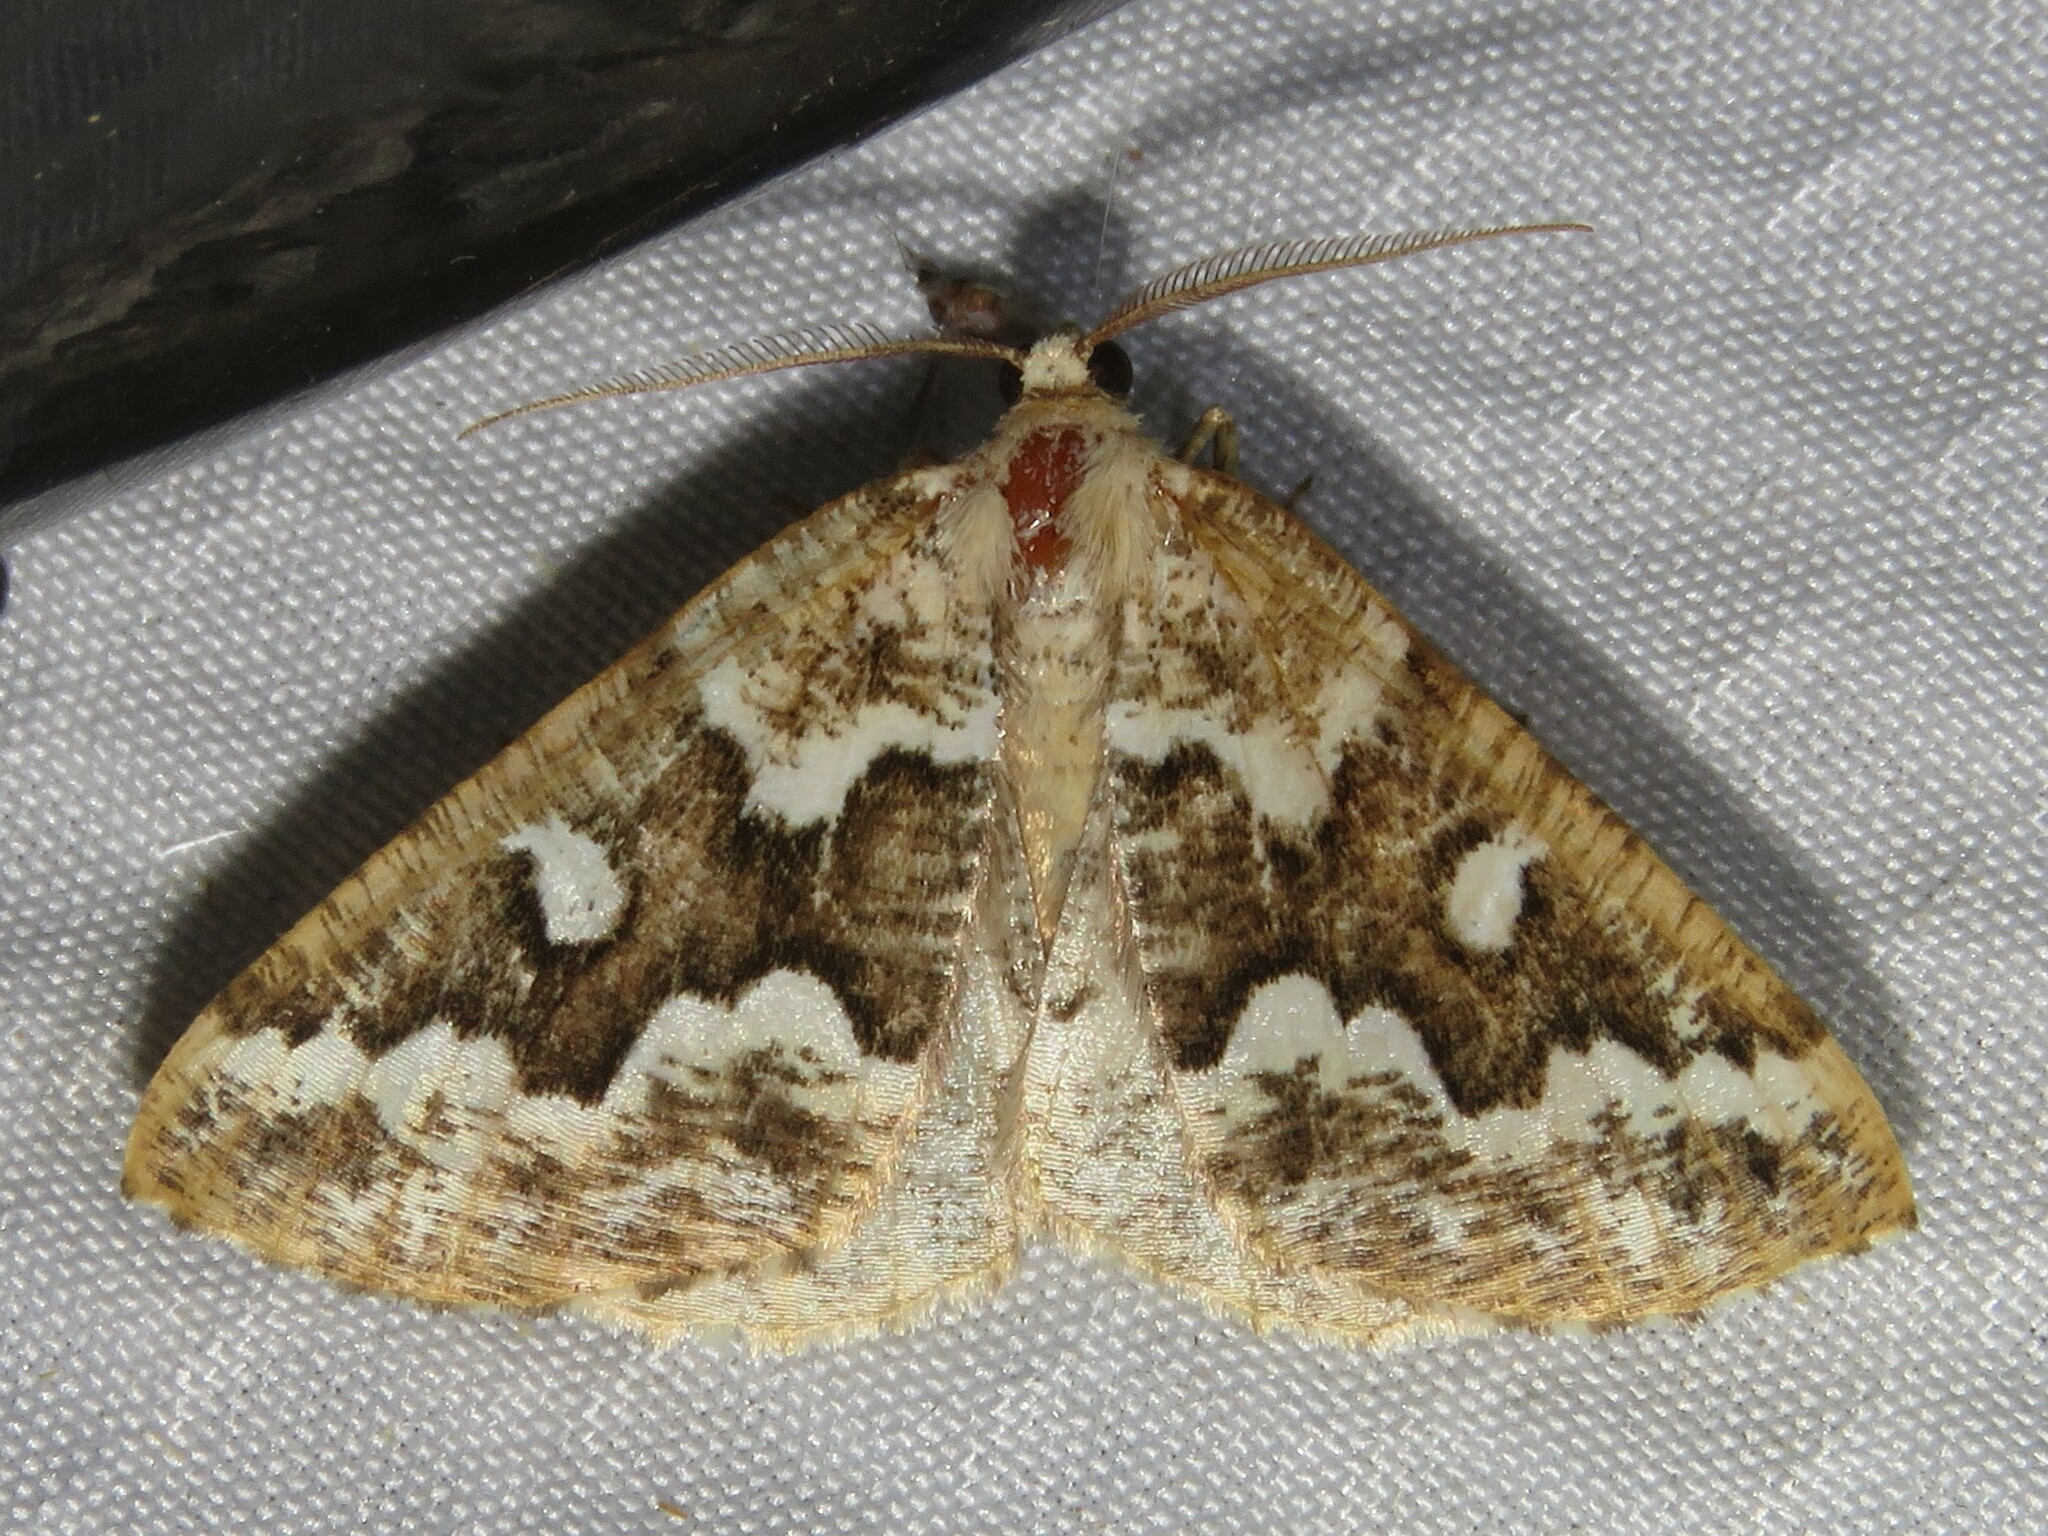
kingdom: Animalia
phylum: Arthropoda
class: Insecta
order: Lepidoptera
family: Geometridae
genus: Caripeta
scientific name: Caripeta divisata
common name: Gray spruce looper
